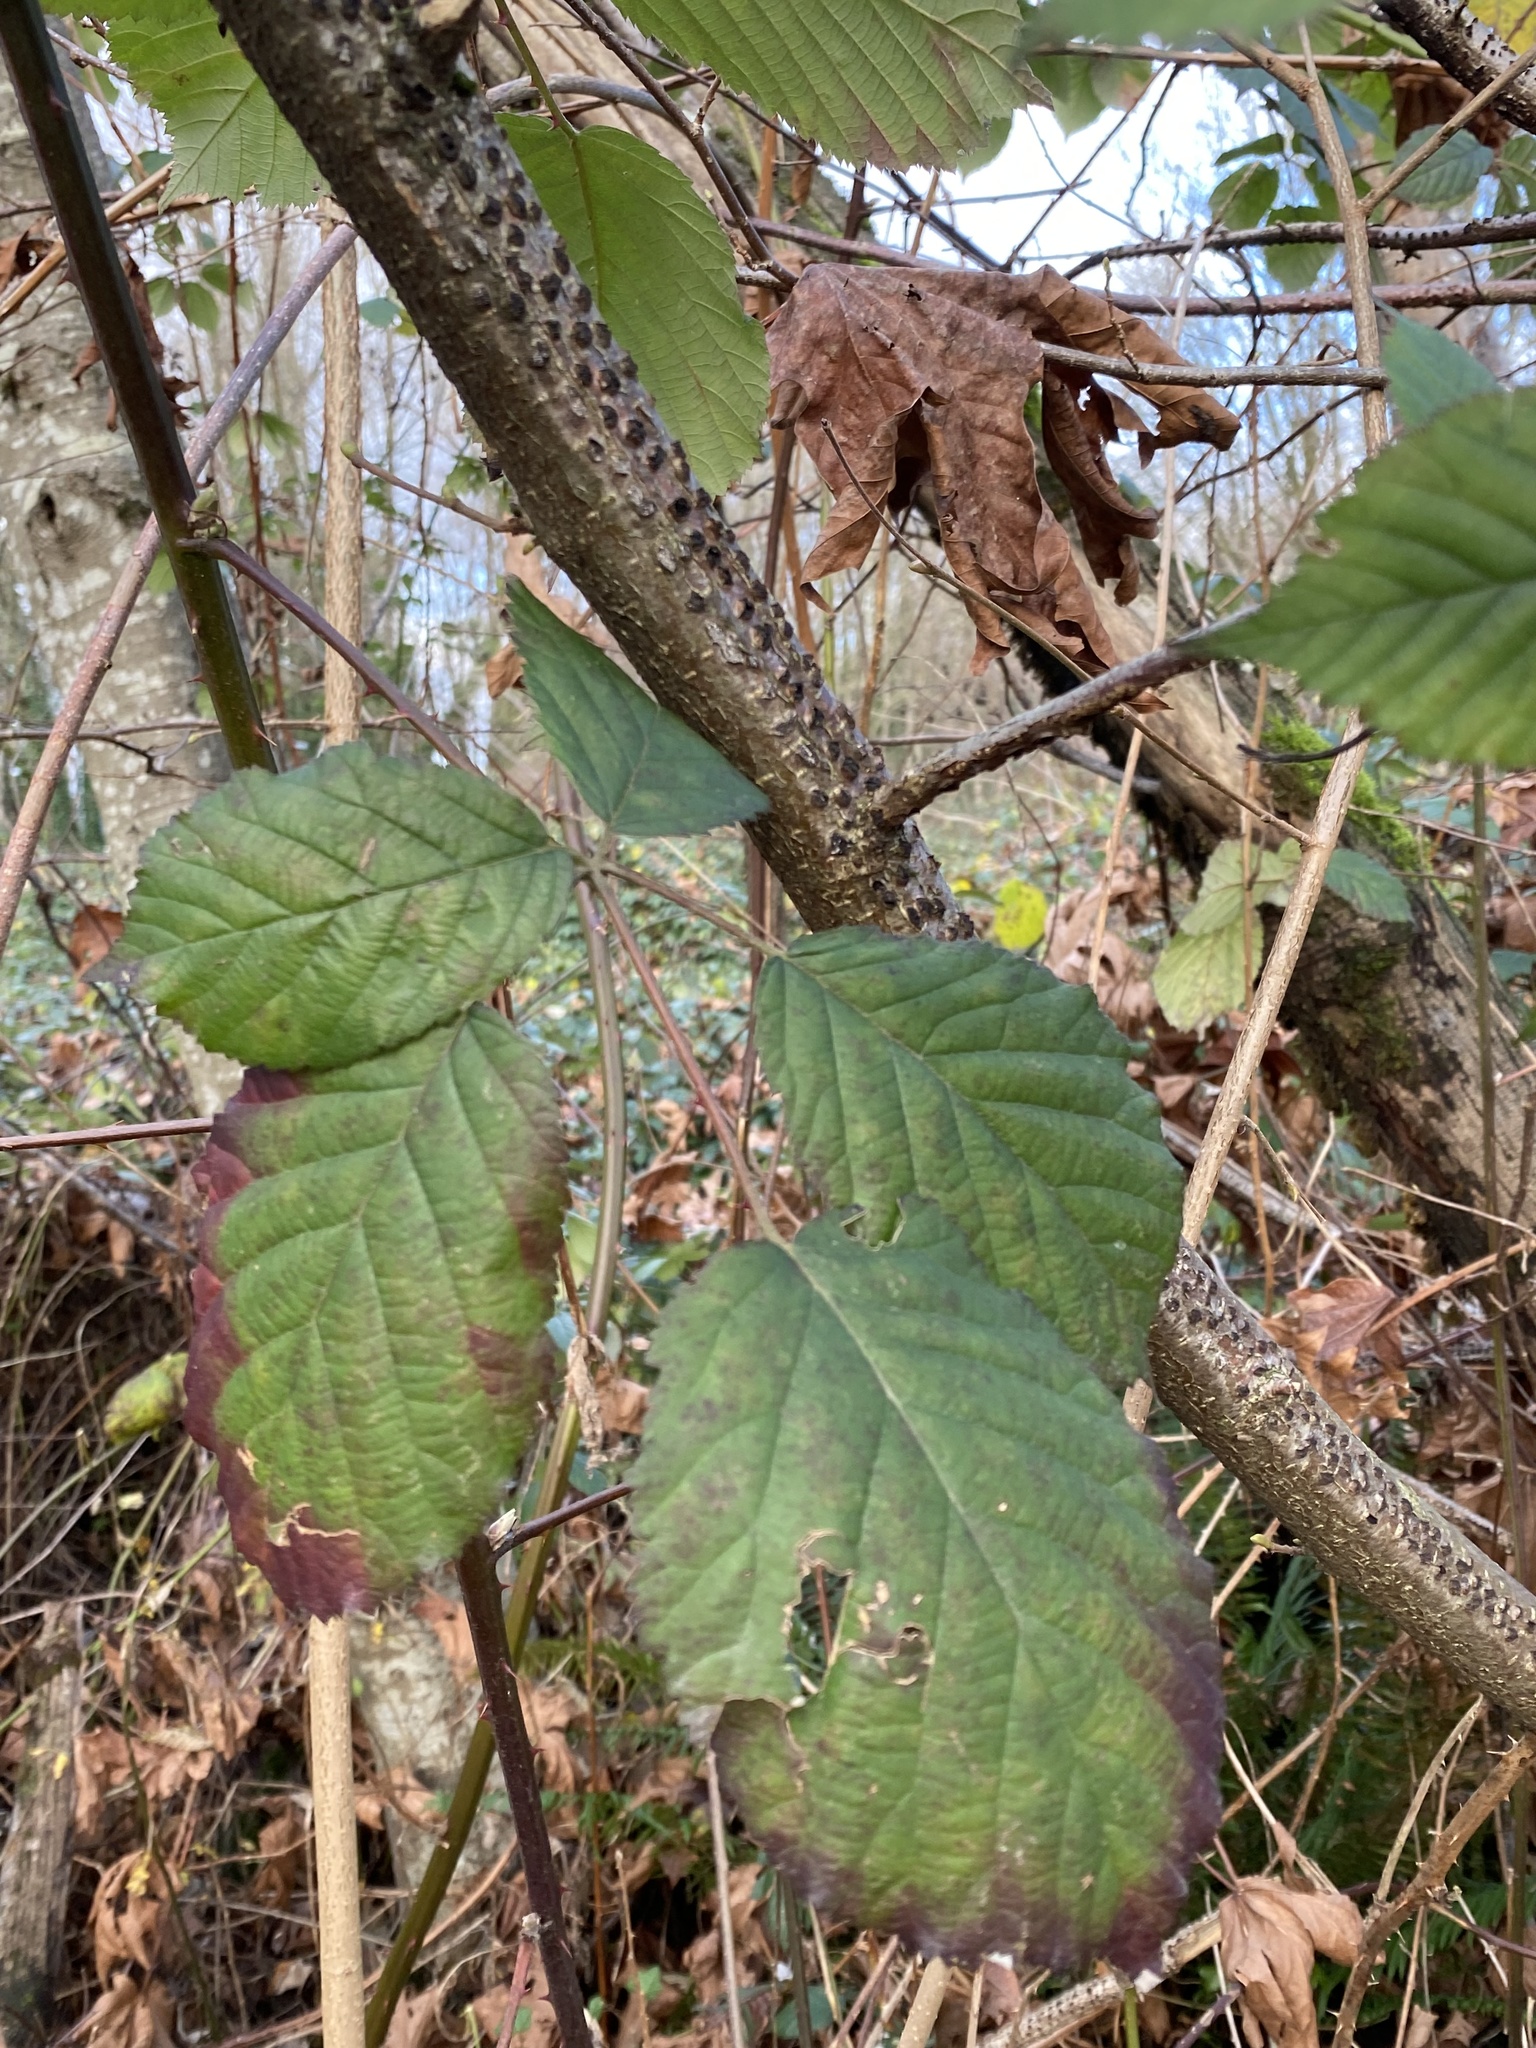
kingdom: Plantae
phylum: Tracheophyta
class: Magnoliopsida
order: Rosales
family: Rosaceae
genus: Rubus
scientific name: Rubus armeniacus
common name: Himalayan blackberry
